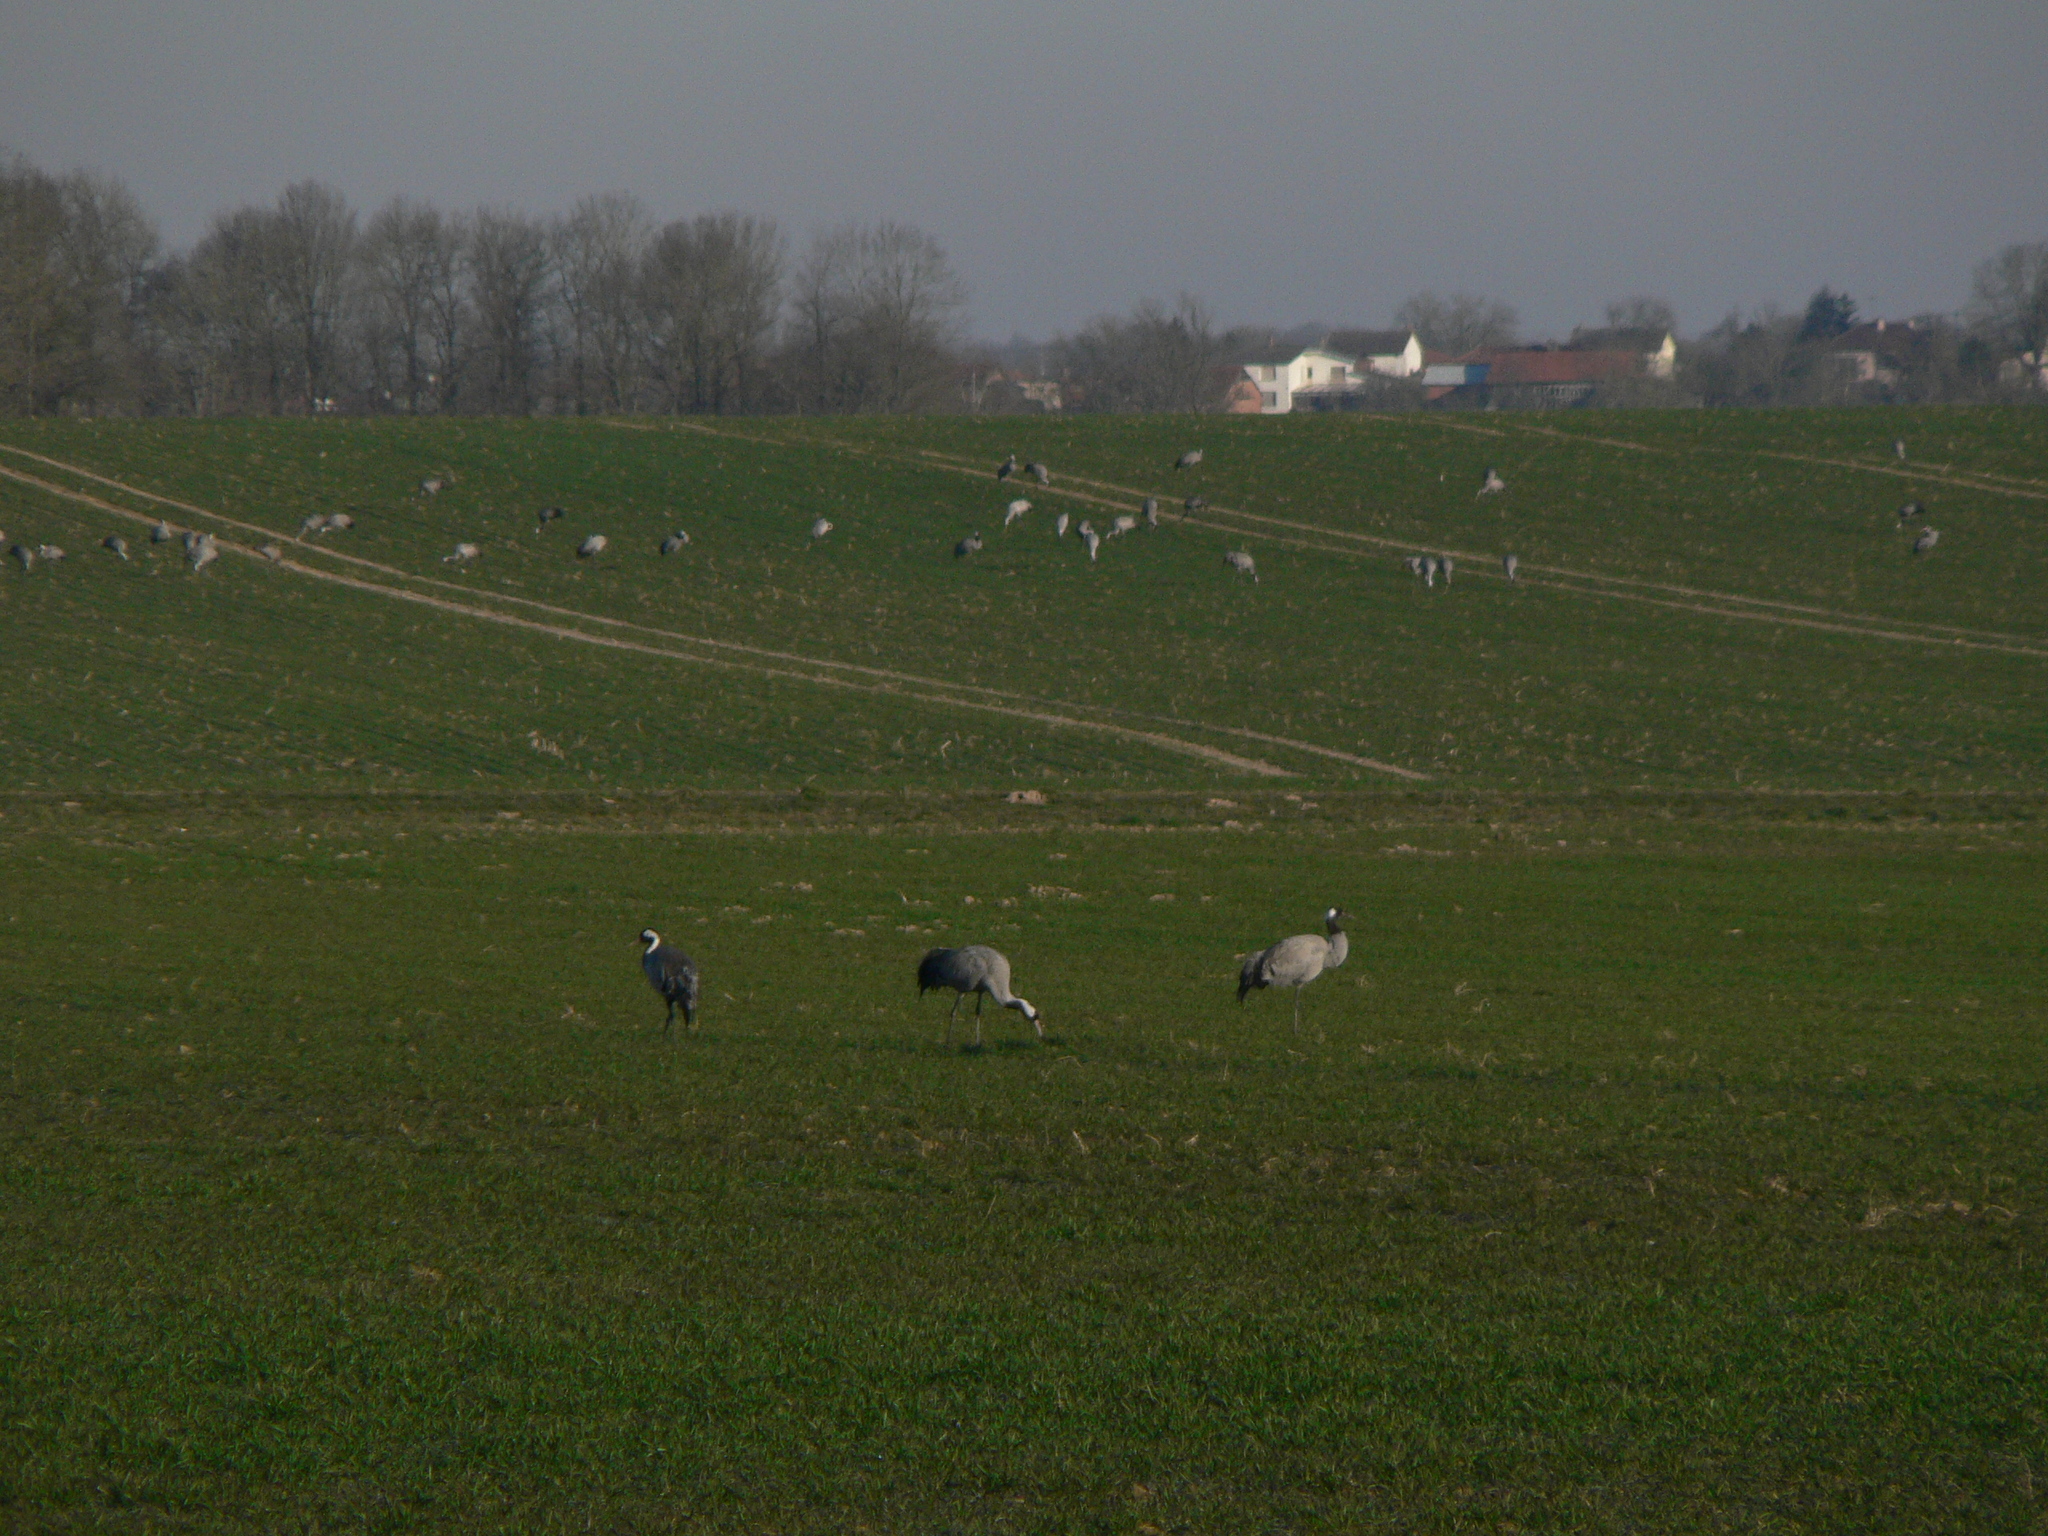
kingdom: Animalia
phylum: Chordata
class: Aves
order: Gruiformes
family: Gruidae
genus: Grus
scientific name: Grus grus
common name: Common crane
